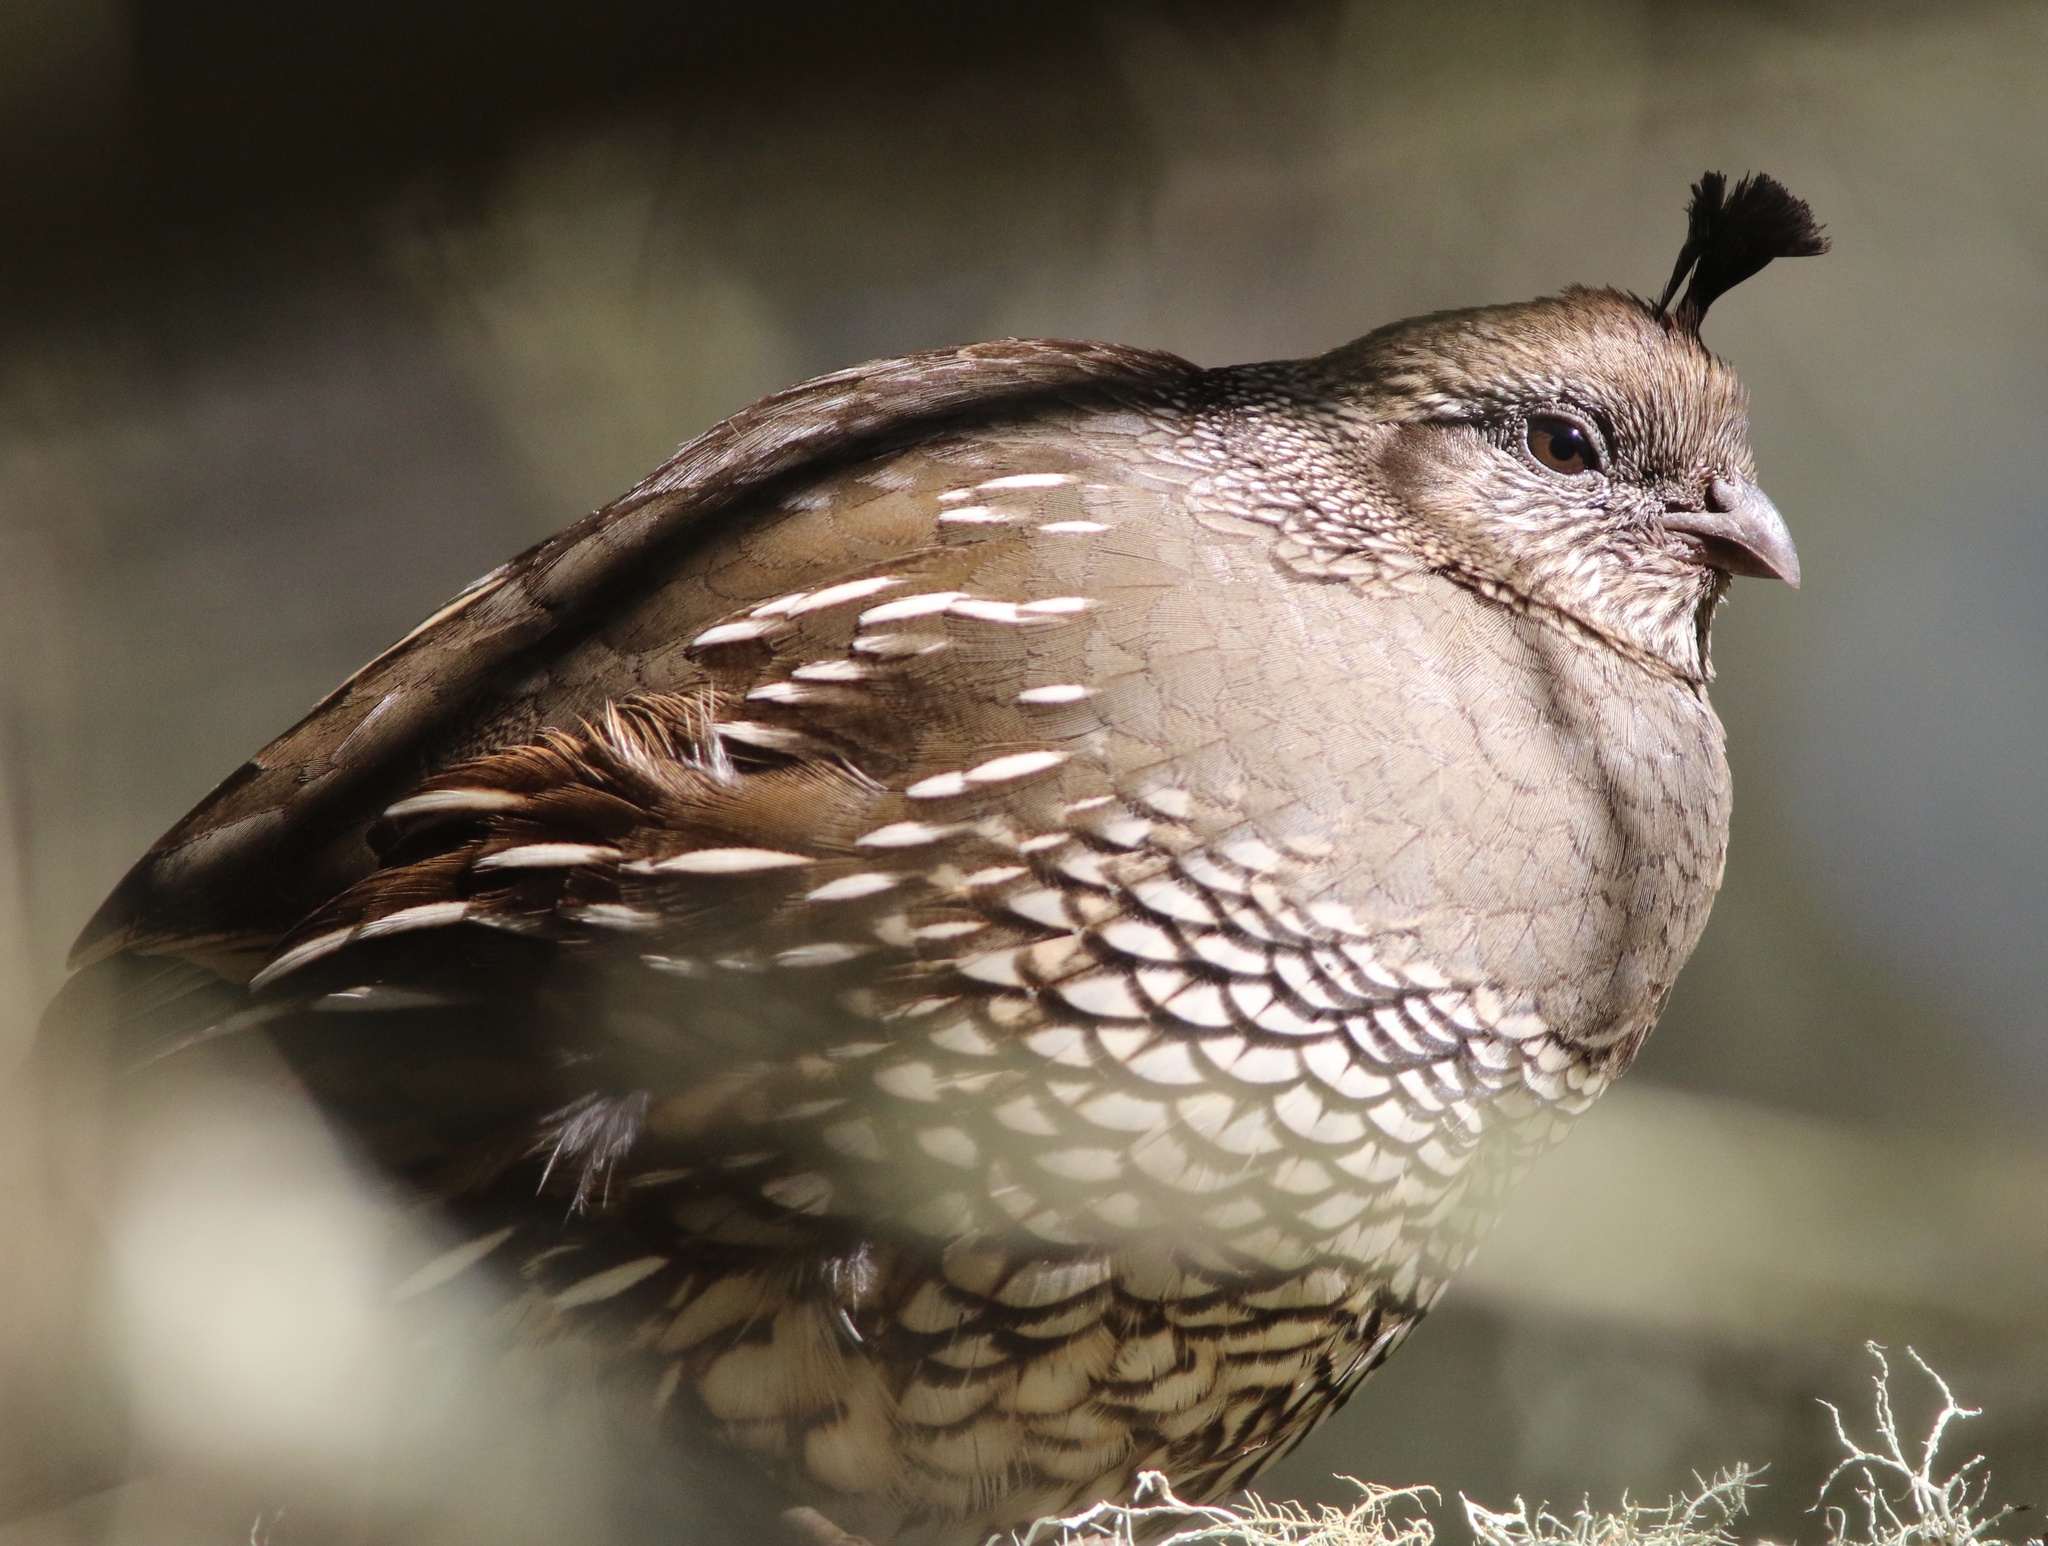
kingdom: Animalia
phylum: Chordata
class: Aves
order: Galliformes
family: Odontophoridae
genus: Callipepla
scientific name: Callipepla californica
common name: California quail
